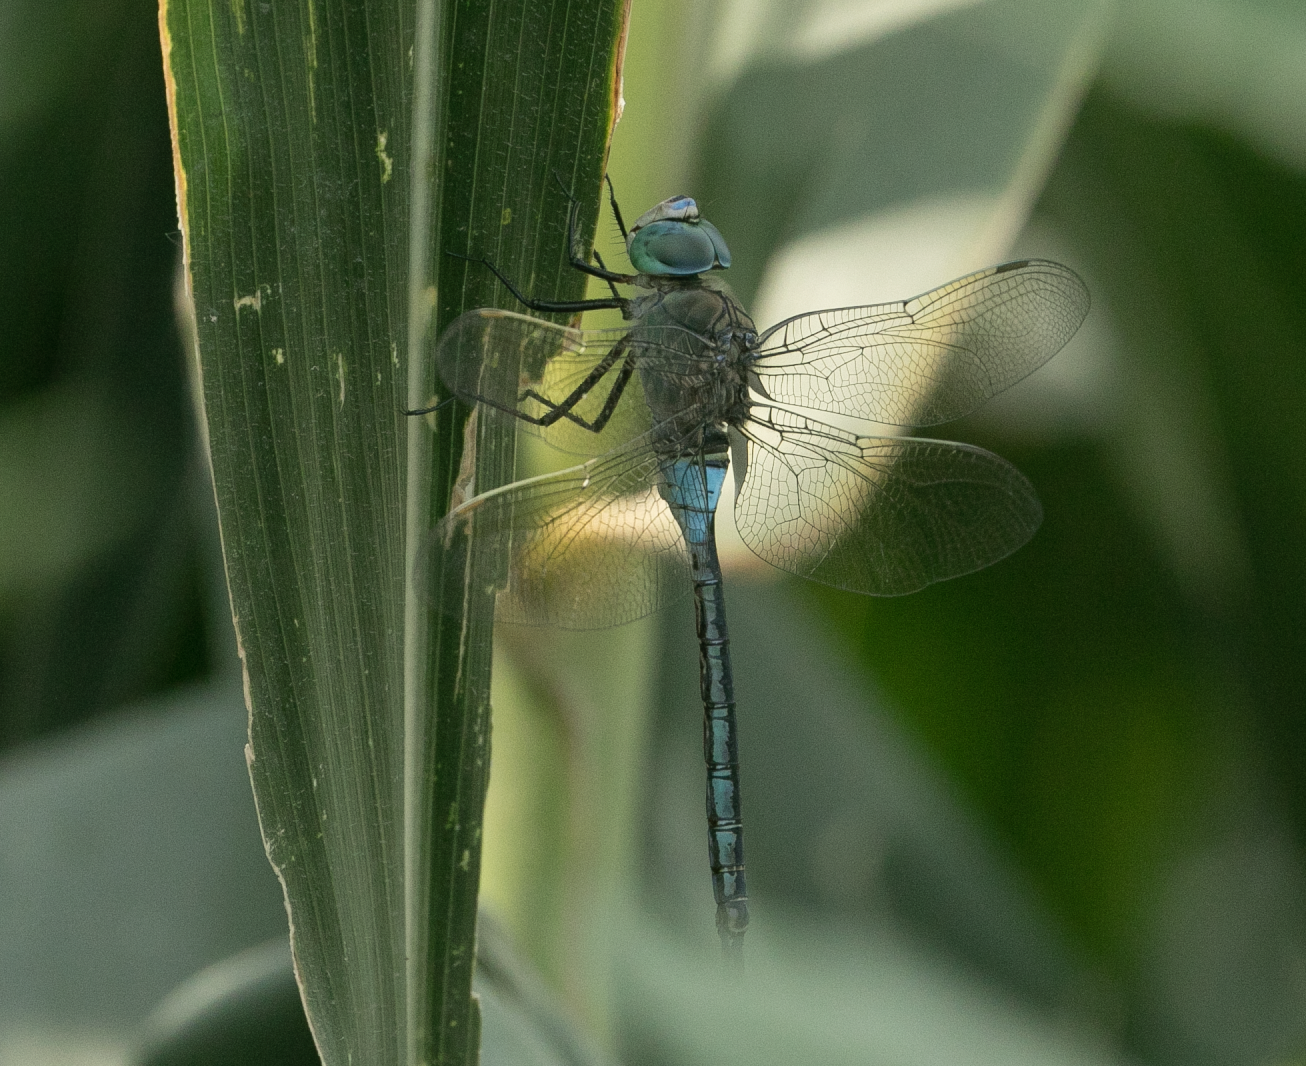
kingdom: Animalia
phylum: Arthropoda
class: Insecta
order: Odonata
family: Aeshnidae
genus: Anax
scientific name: Anax parthenope
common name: Lesser emperor
